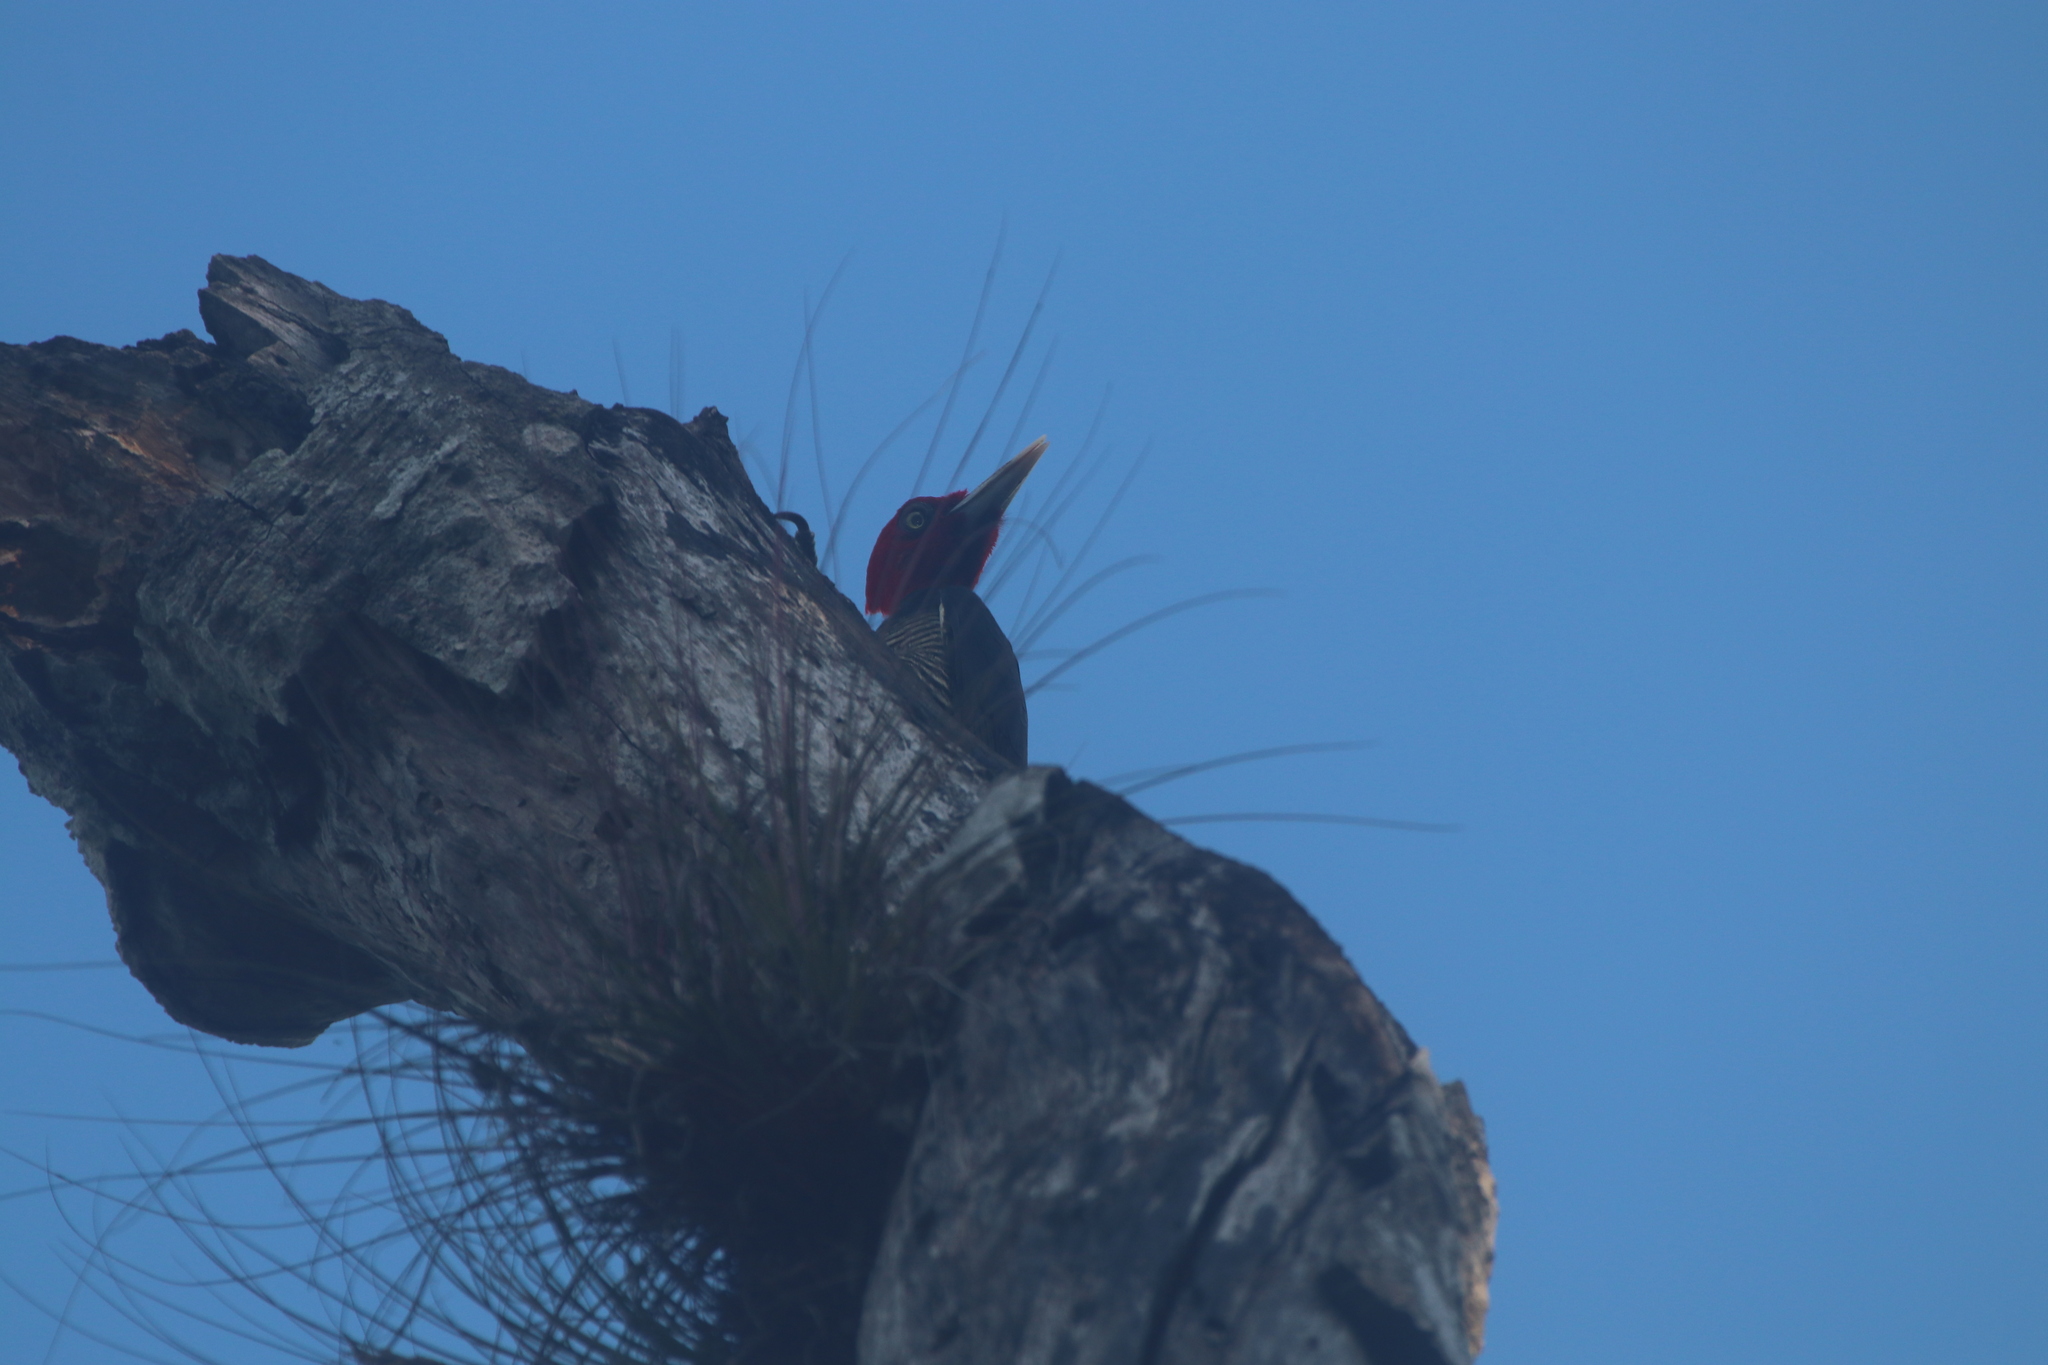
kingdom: Animalia
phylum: Chordata
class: Aves
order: Piciformes
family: Picidae
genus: Campephilus
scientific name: Campephilus guatemalensis
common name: Pale-billed woodpecker
